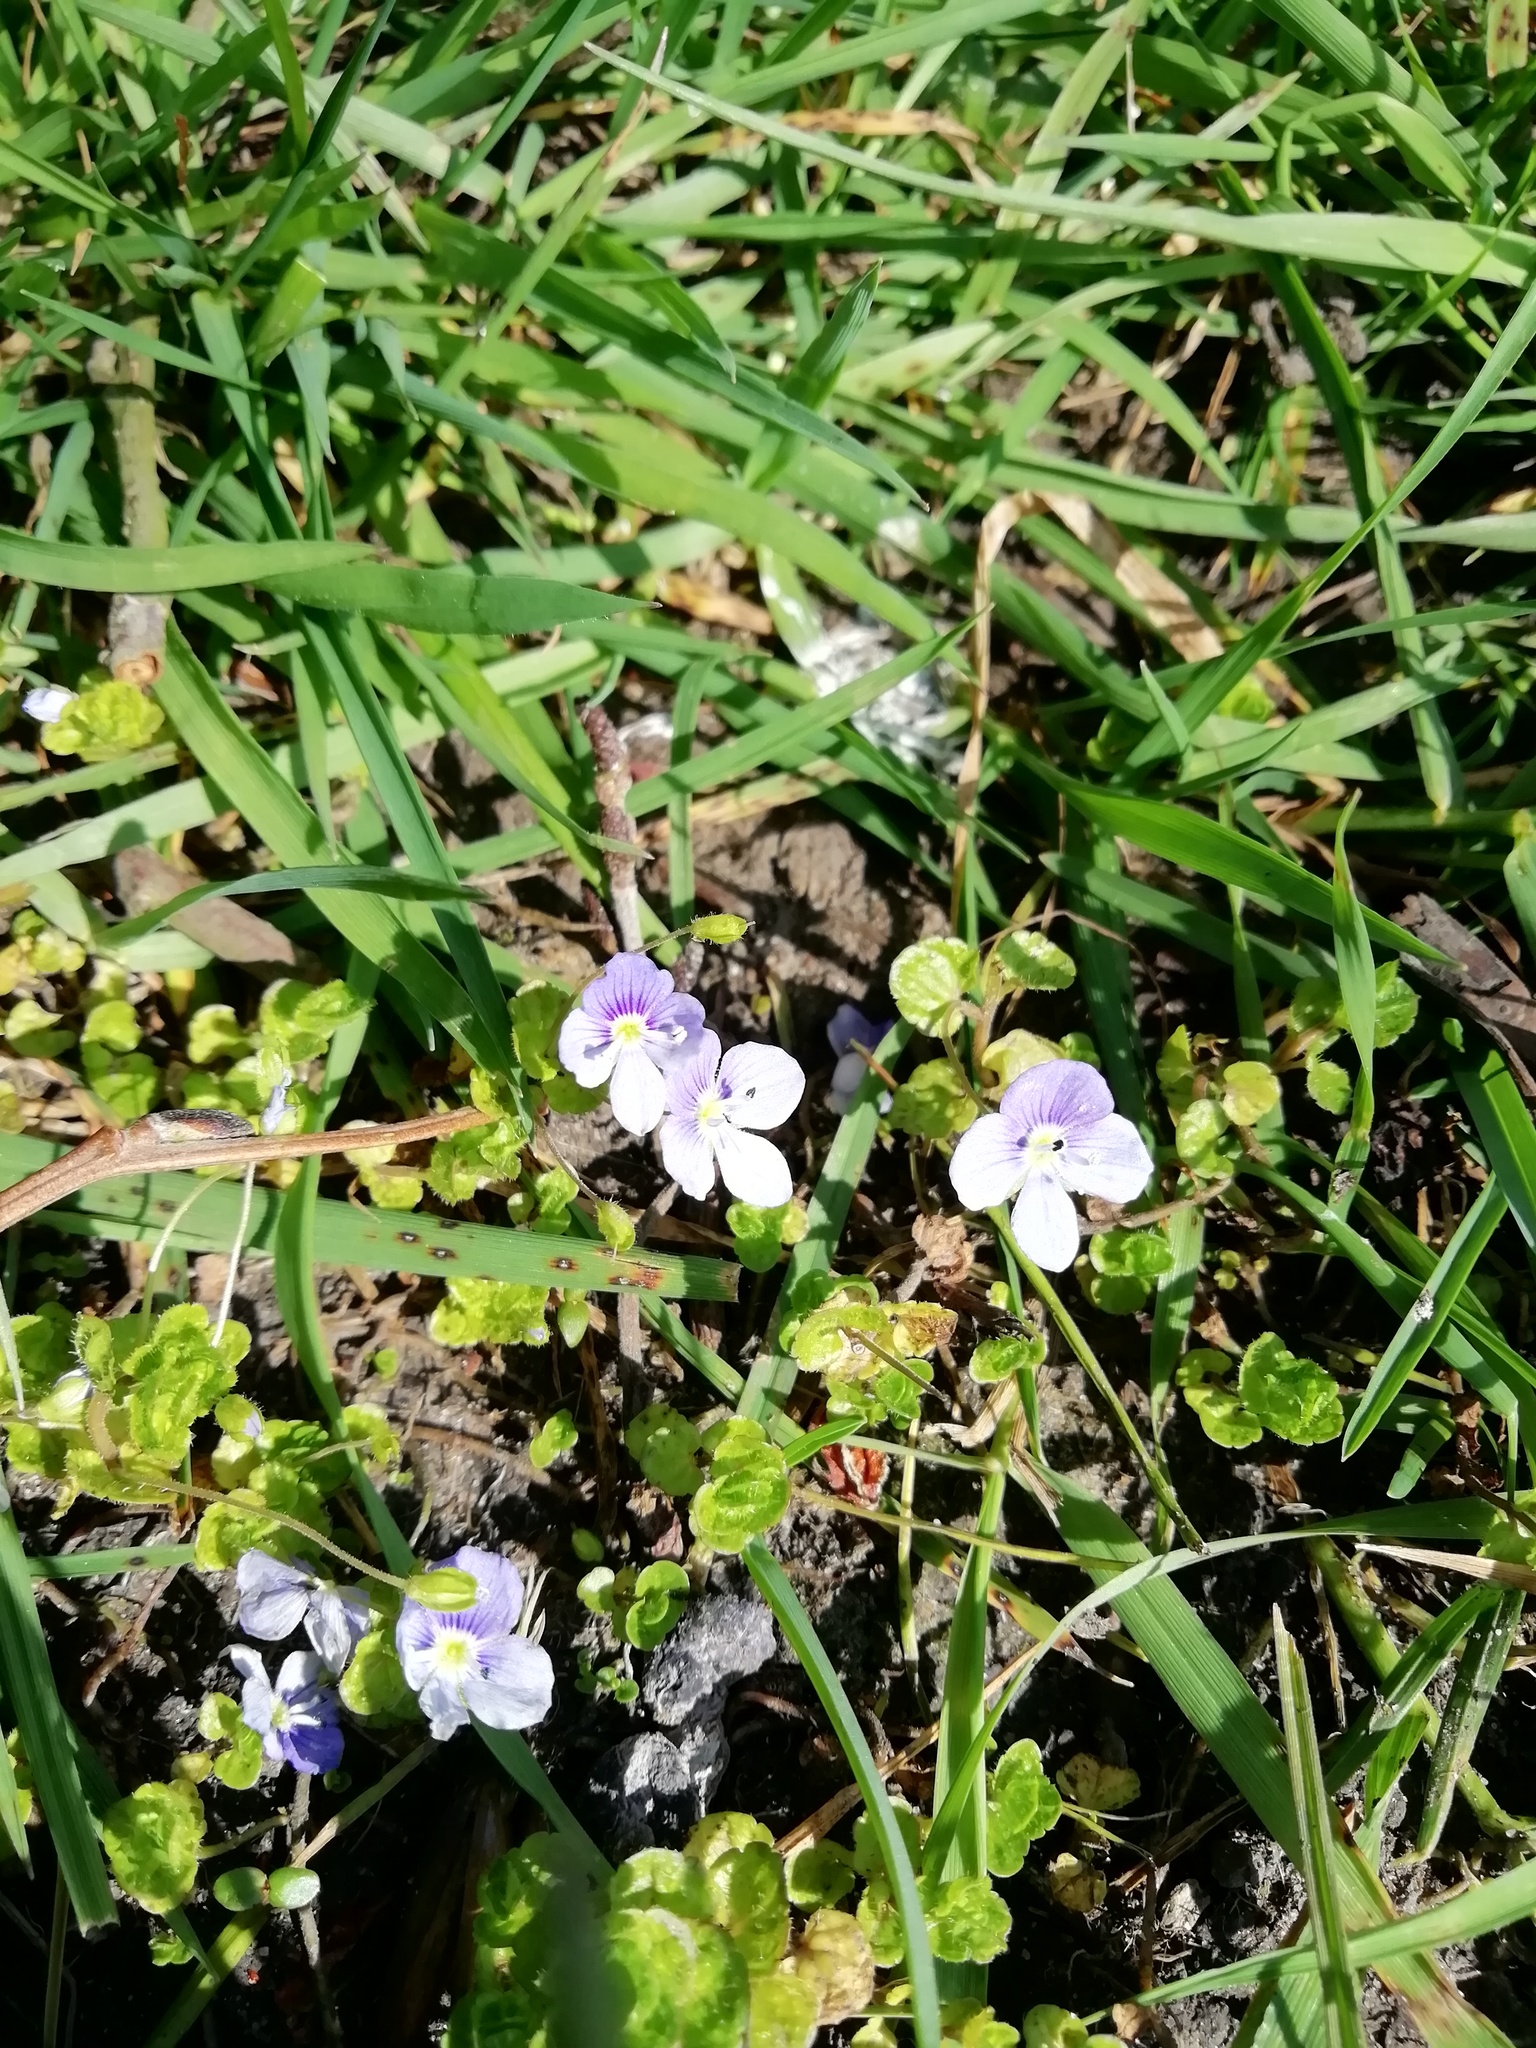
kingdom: Plantae
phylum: Tracheophyta
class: Magnoliopsida
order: Lamiales
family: Plantaginaceae
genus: Veronica
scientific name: Veronica filiformis
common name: Slender speedwell
